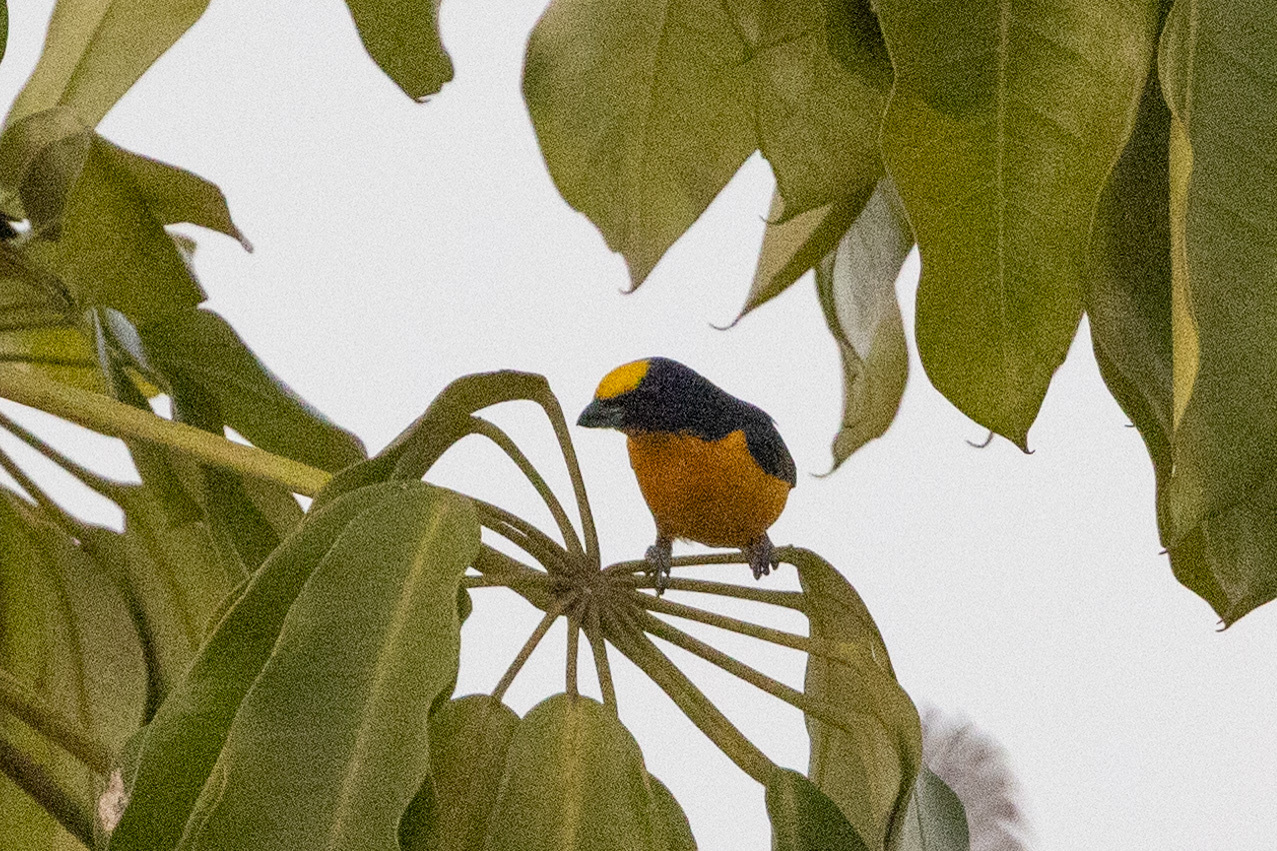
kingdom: Animalia
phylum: Chordata
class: Aves
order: Passeriformes
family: Fringillidae
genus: Euphonia
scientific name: Euphonia laniirostris
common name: Thick-billed euphonia
